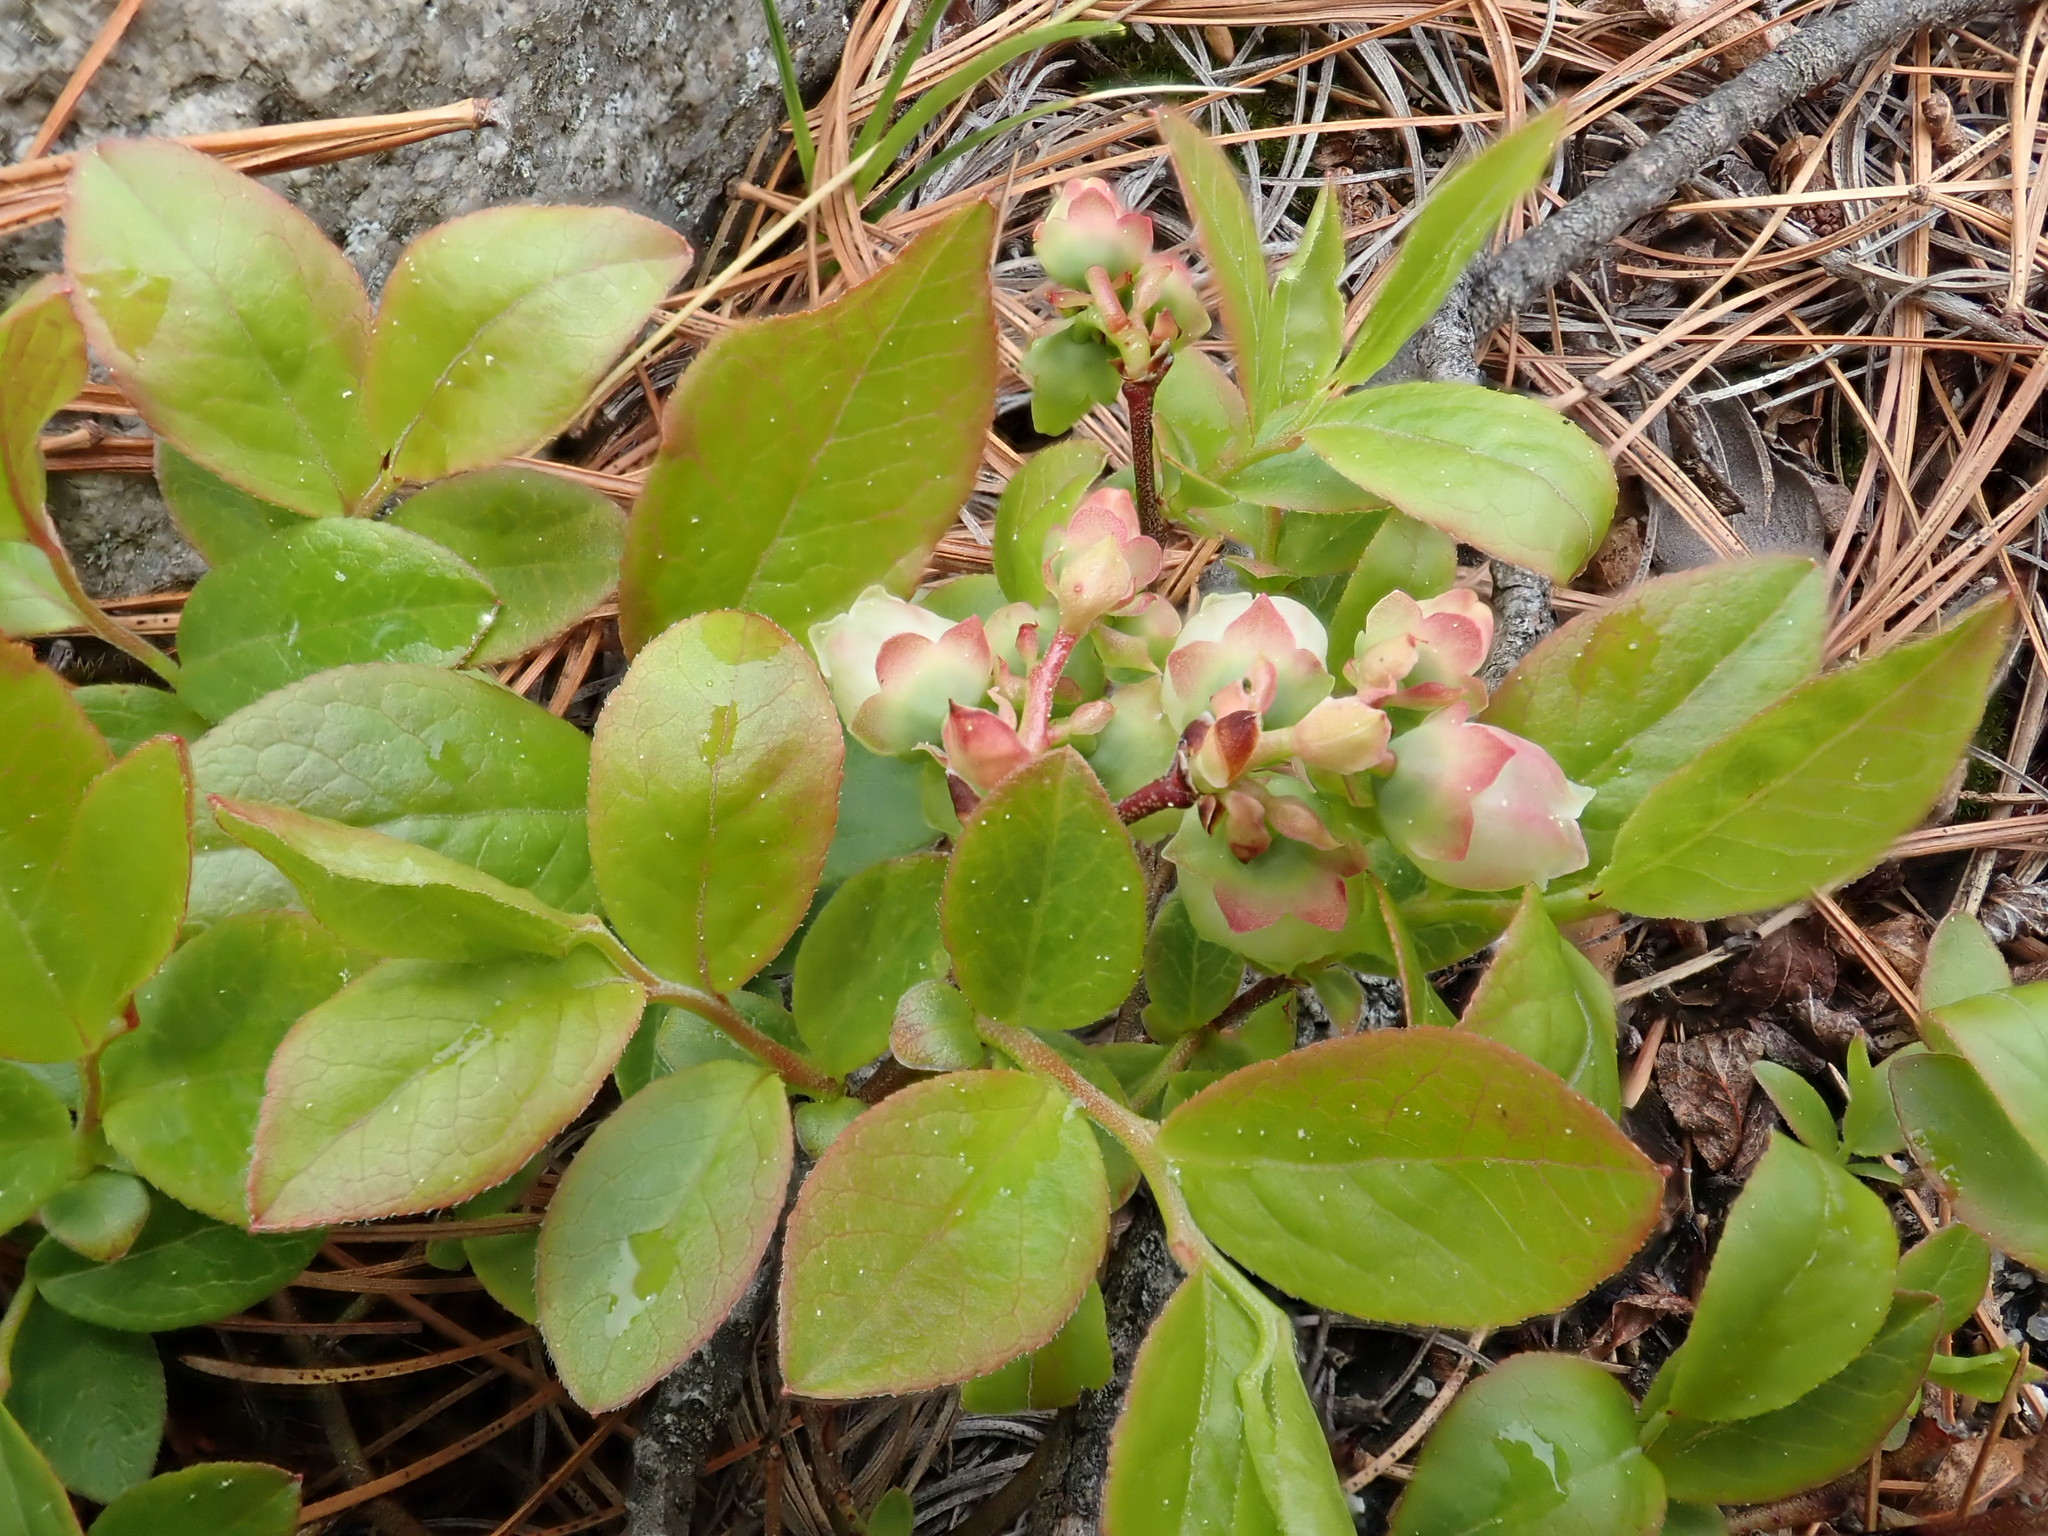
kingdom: Plantae
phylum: Tracheophyta
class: Magnoliopsida
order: Ericales
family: Ericaceae
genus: Vaccinium
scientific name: Vaccinium angustifolium
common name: Early lowbush blueberry
